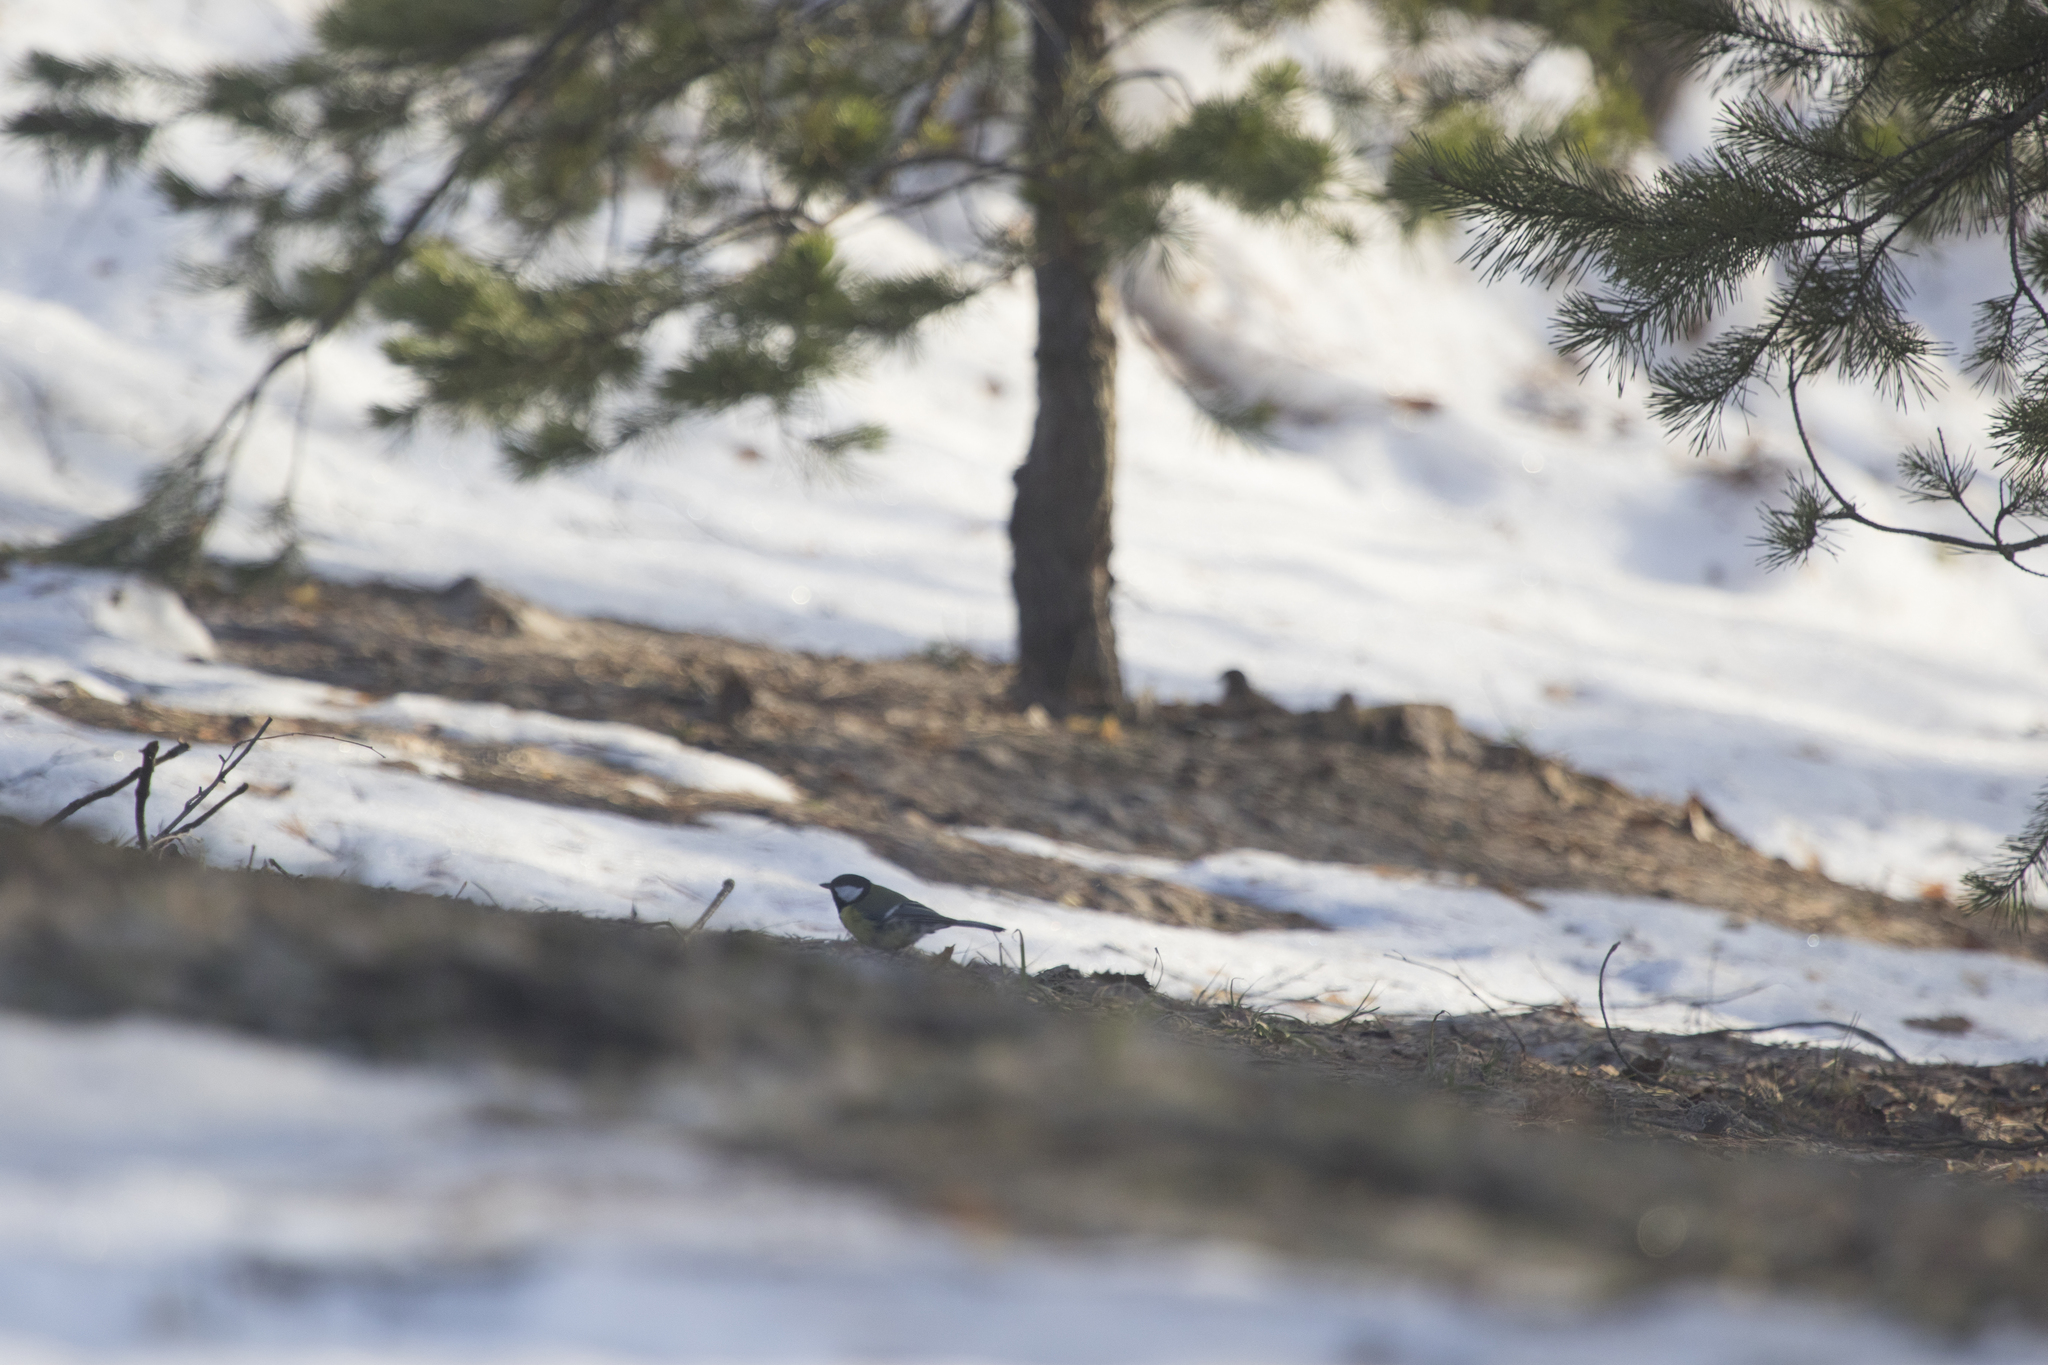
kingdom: Animalia
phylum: Chordata
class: Aves
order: Passeriformes
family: Paridae
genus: Parus
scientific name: Parus major
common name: Great tit
